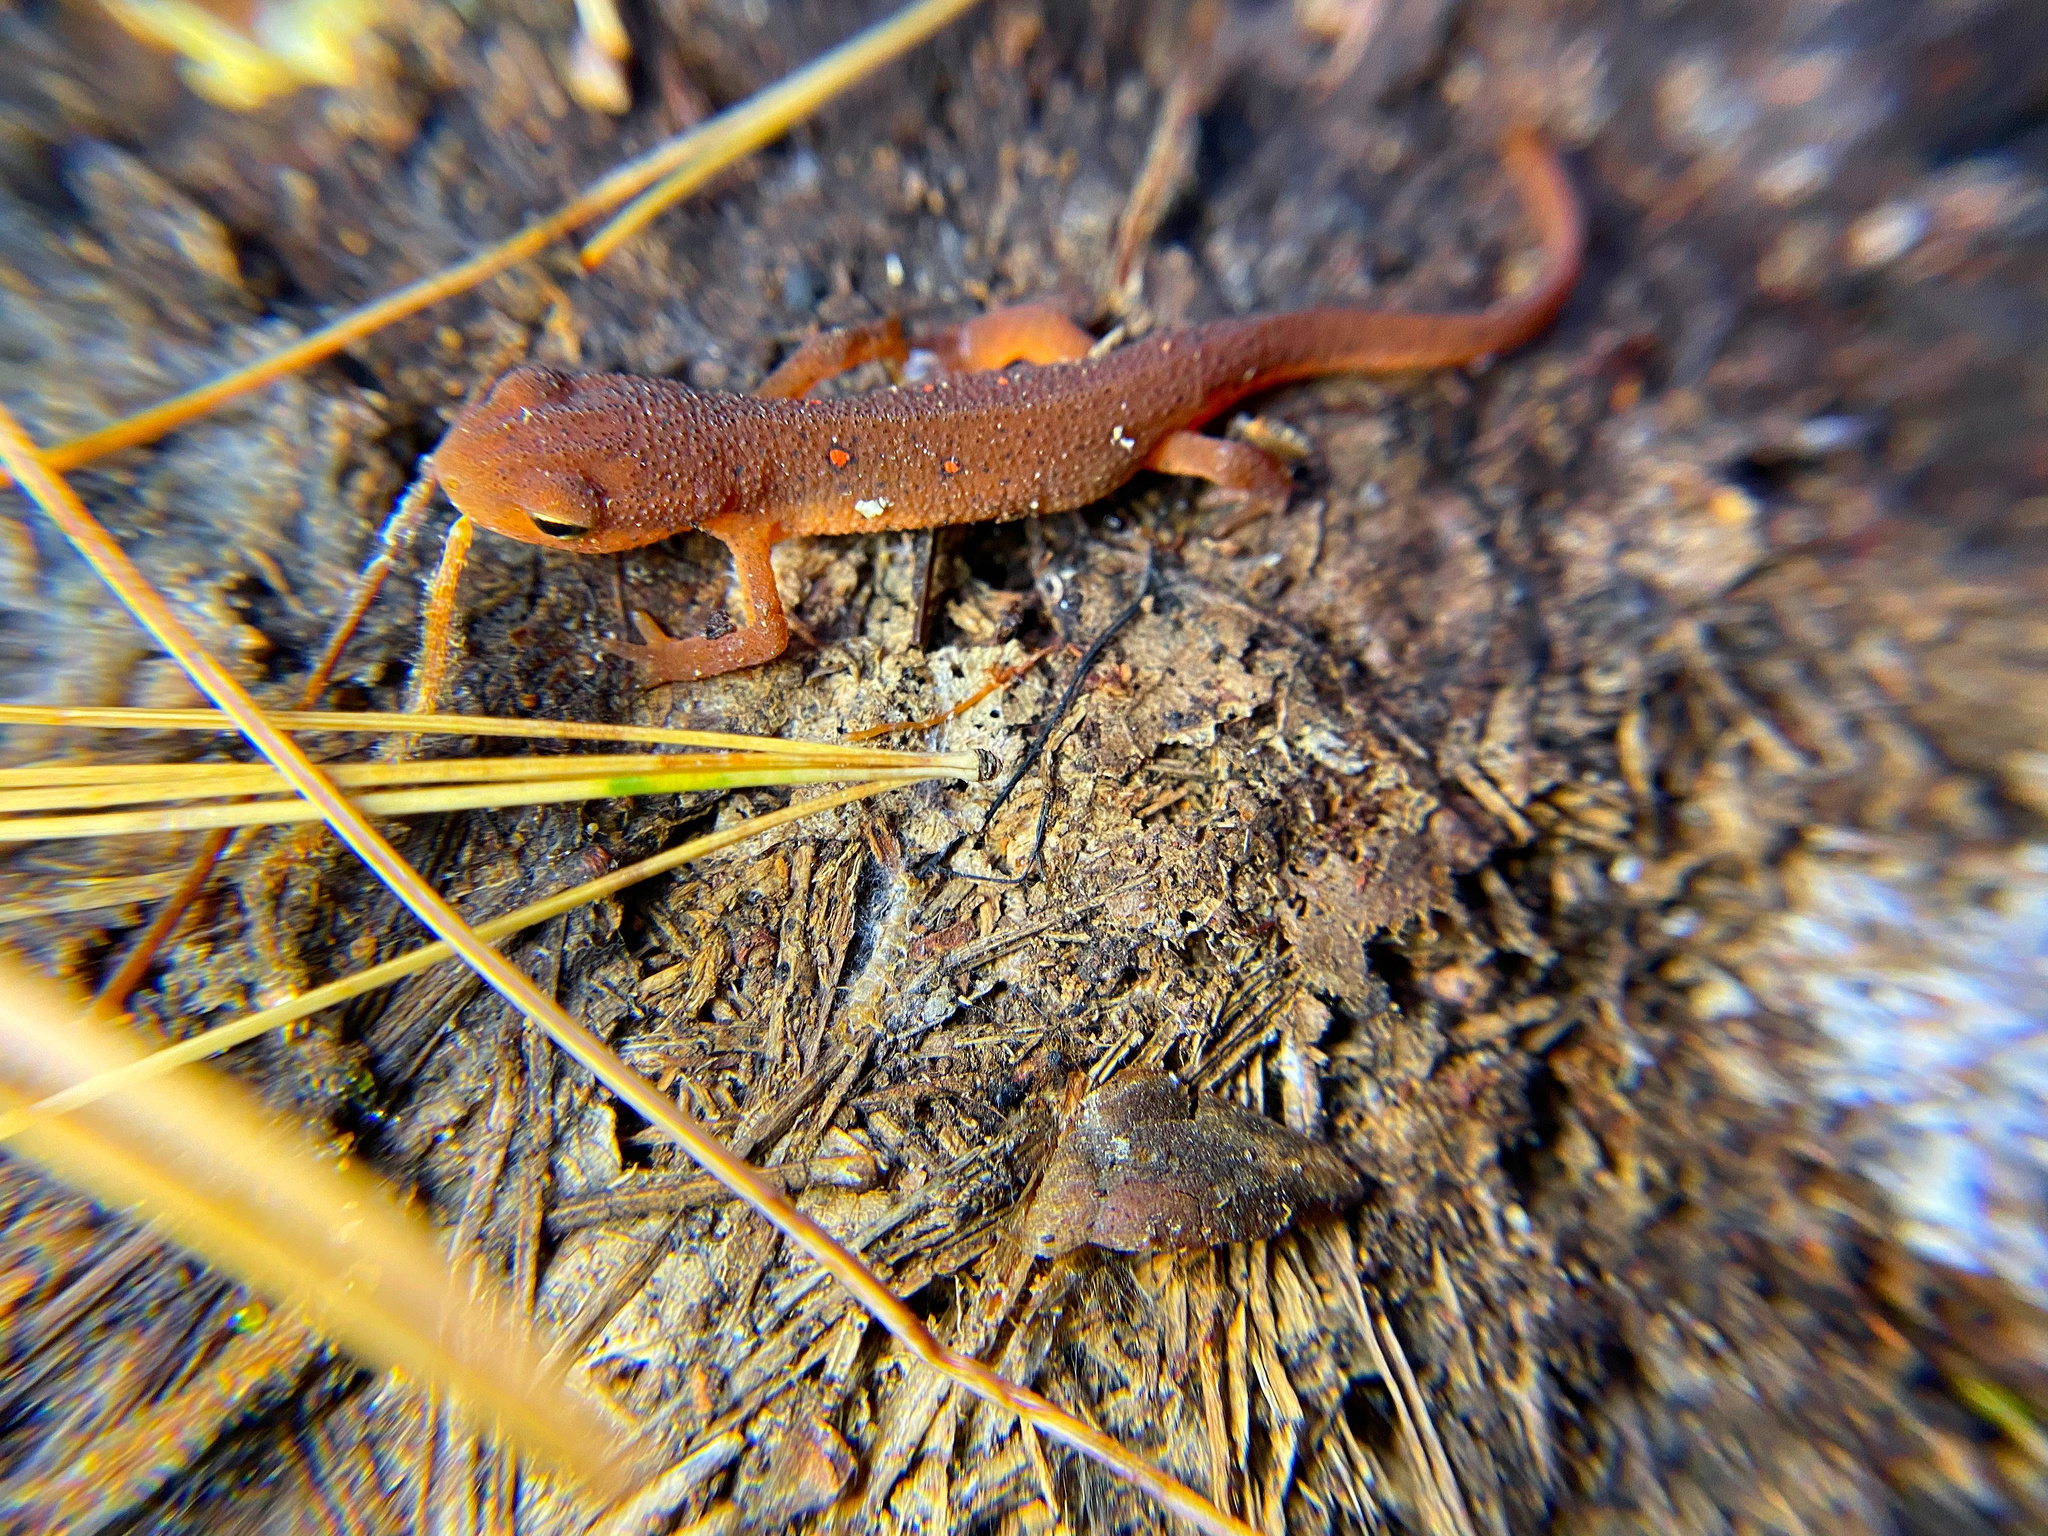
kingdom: Animalia
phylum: Chordata
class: Amphibia
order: Caudata
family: Salamandridae
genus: Notophthalmus
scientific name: Notophthalmus viridescens
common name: Eastern newt
